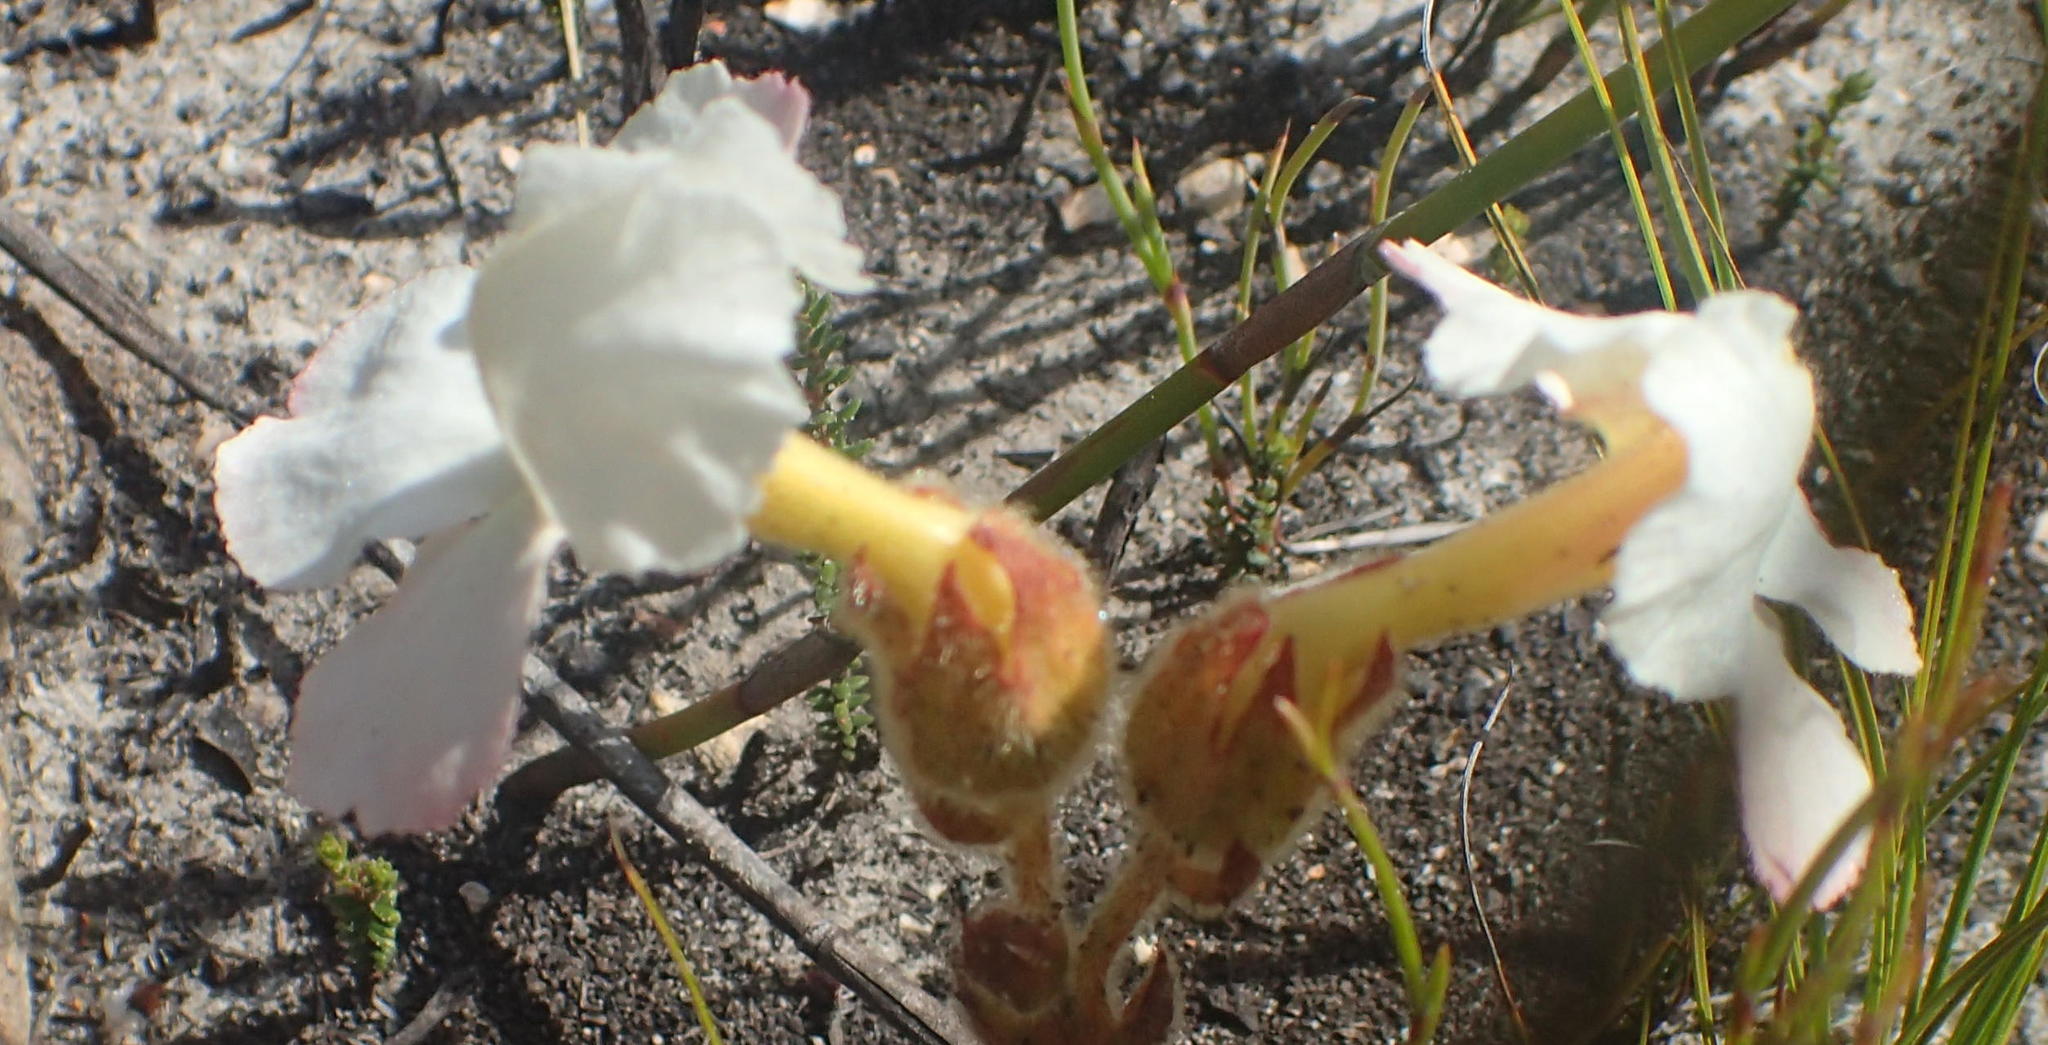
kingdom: Plantae
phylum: Tracheophyta
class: Magnoliopsida
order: Lamiales
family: Orobanchaceae
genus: Harveya
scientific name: Harveya capensis
